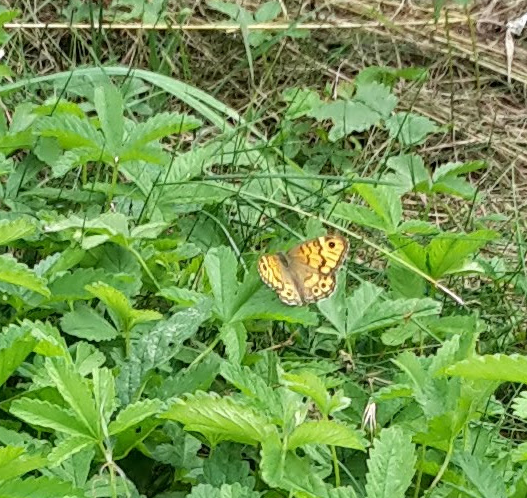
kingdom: Animalia
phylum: Arthropoda
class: Insecta
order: Lepidoptera
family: Nymphalidae
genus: Pararge
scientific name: Pararge Lasiommata megera
